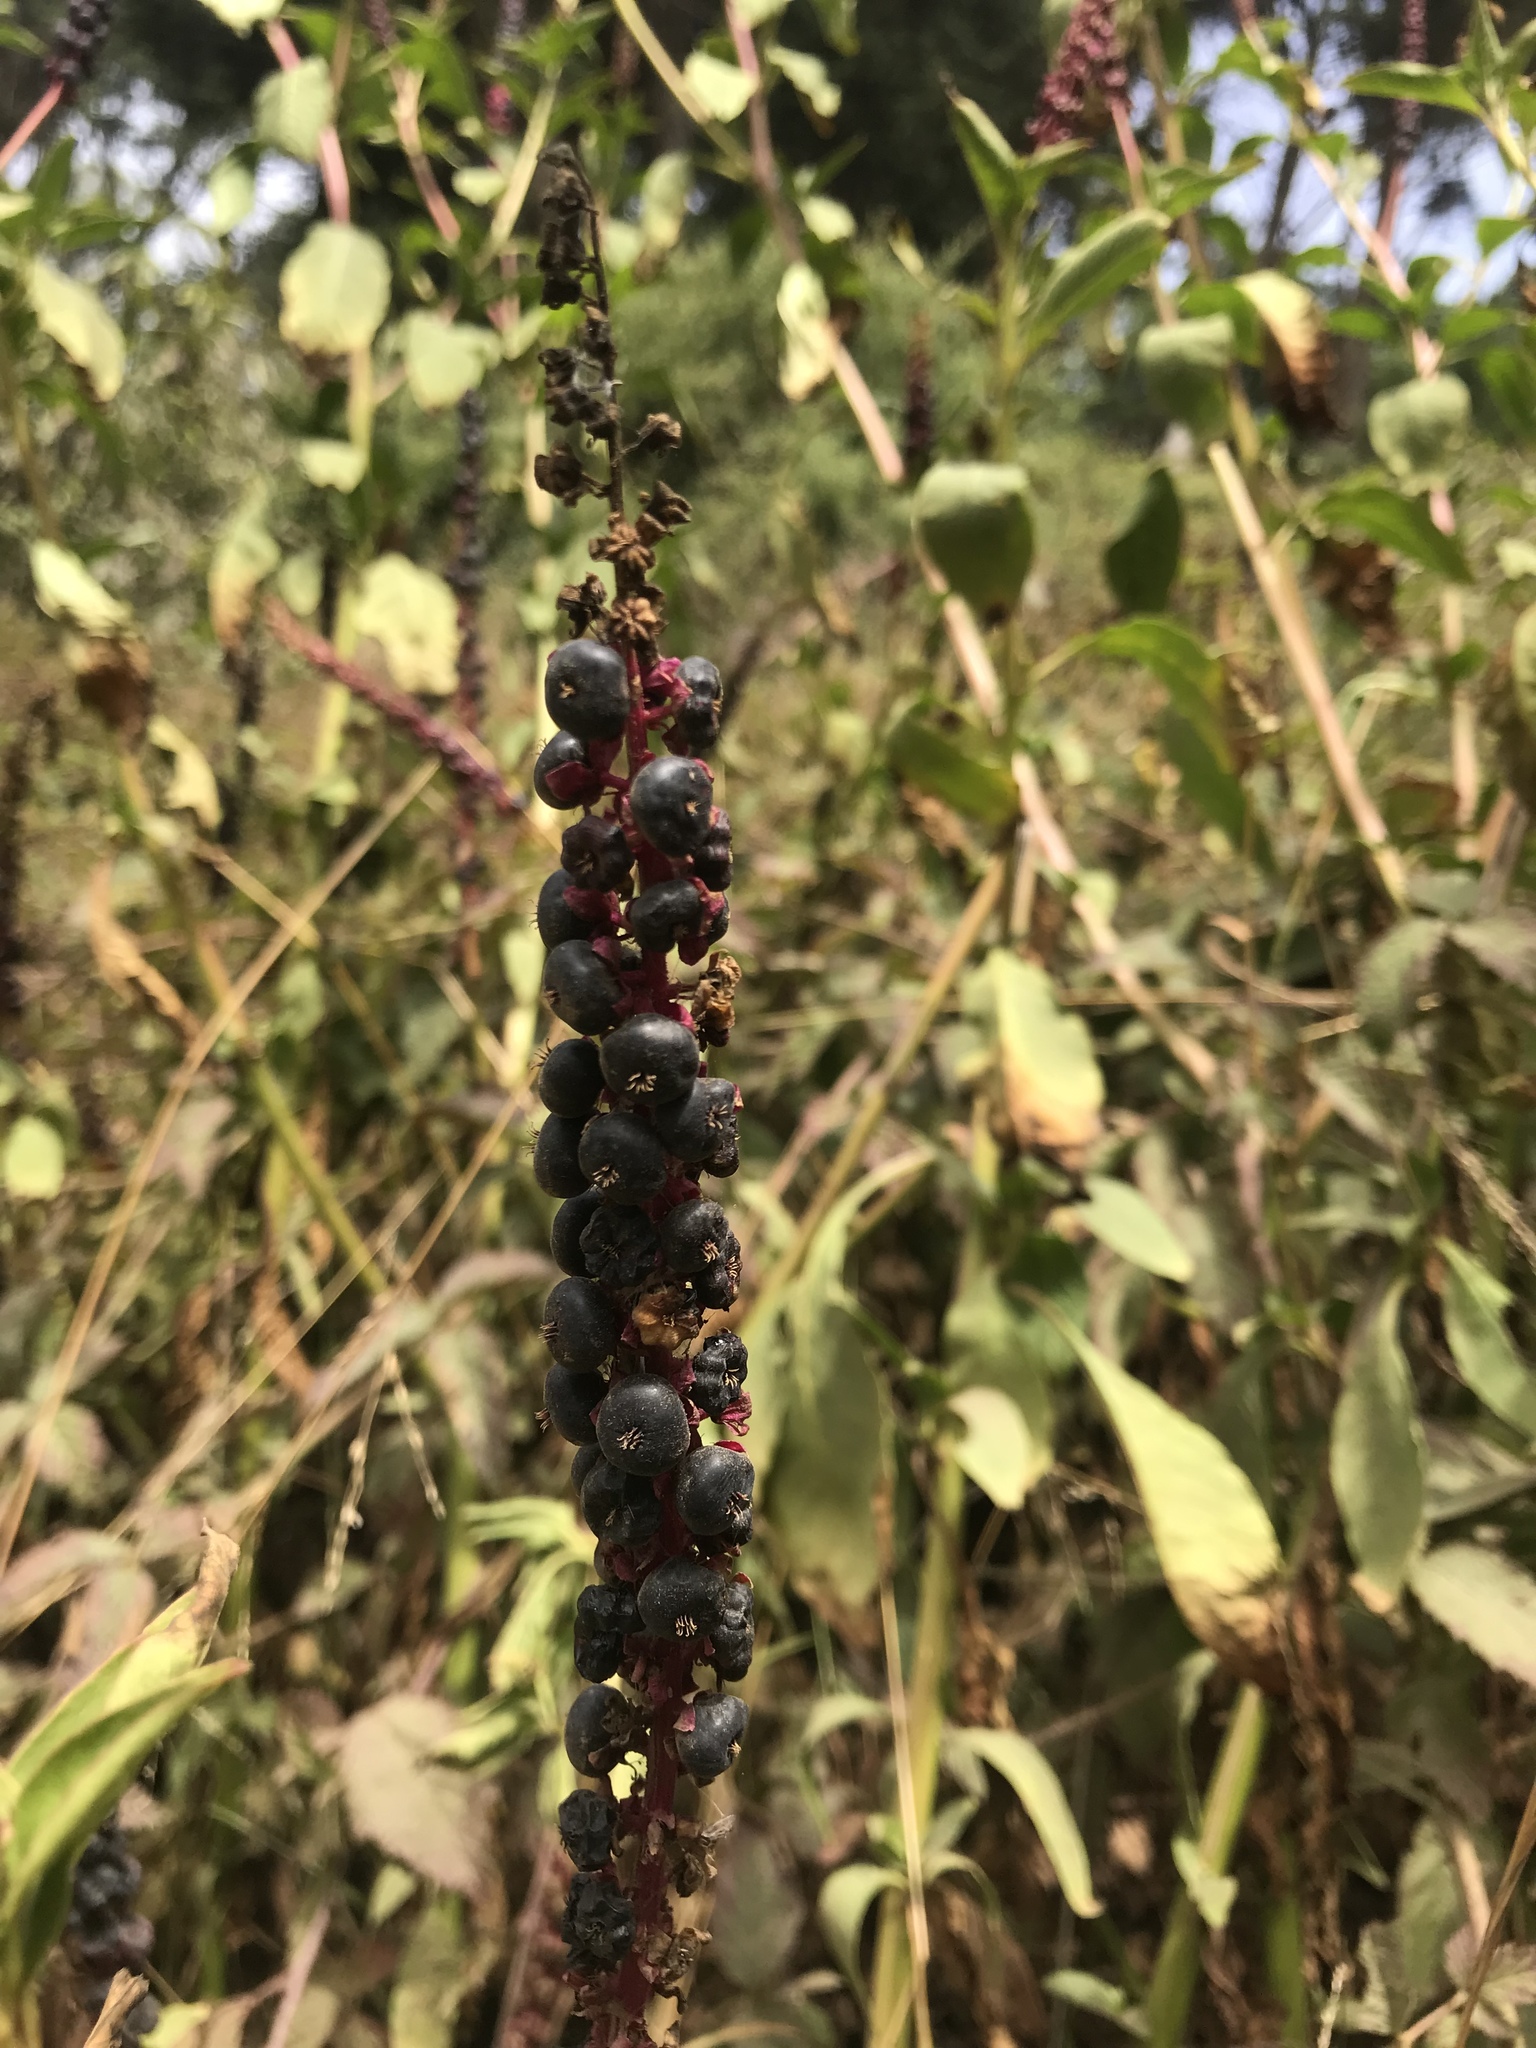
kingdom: Plantae
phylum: Tracheophyta
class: Magnoliopsida
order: Caryophyllales
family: Phytolaccaceae
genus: Phytolacca
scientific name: Phytolacca heterotepala
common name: Mexican pokeweed
